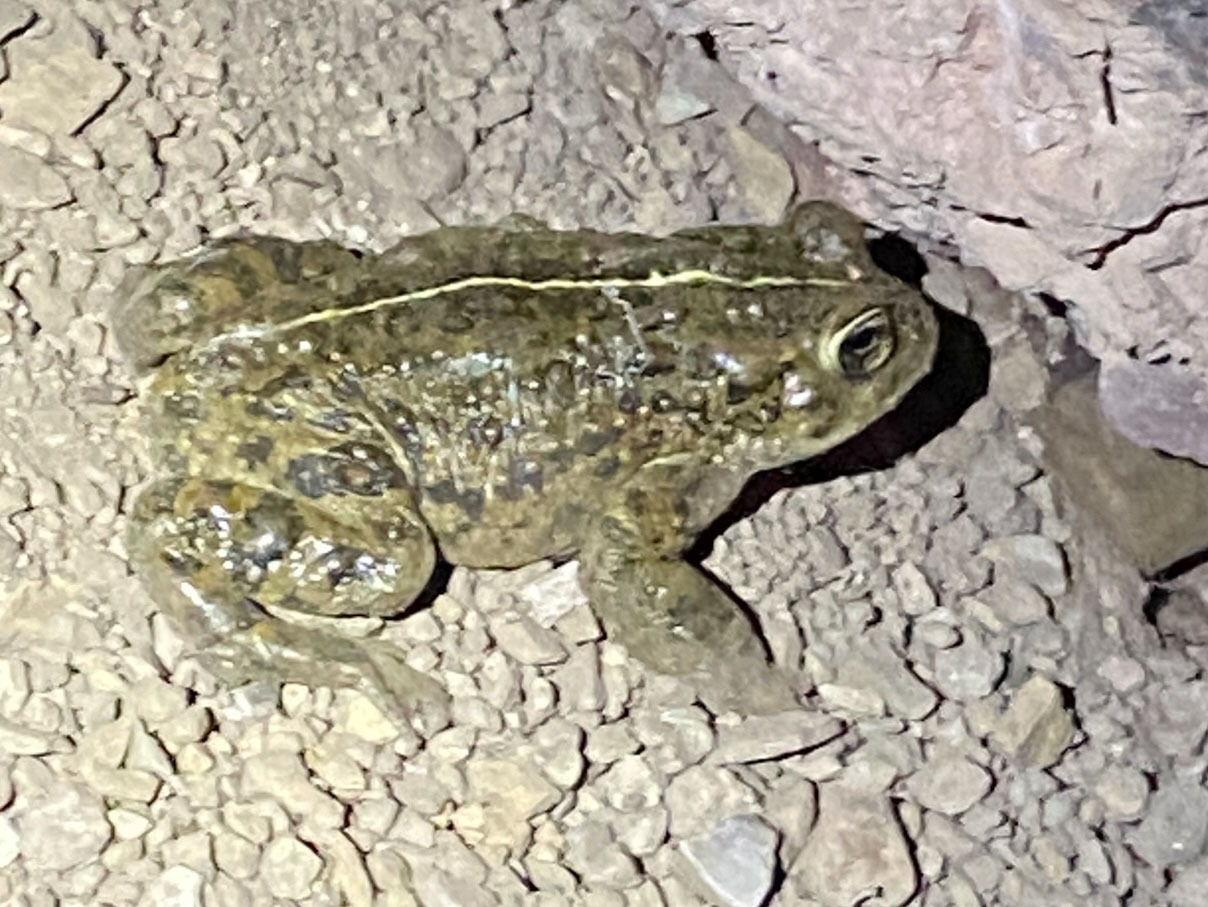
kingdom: Animalia
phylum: Chordata
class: Amphibia
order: Anura
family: Bufonidae
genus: Anaxyrus
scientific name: Anaxyrus boreas
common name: Western toad
